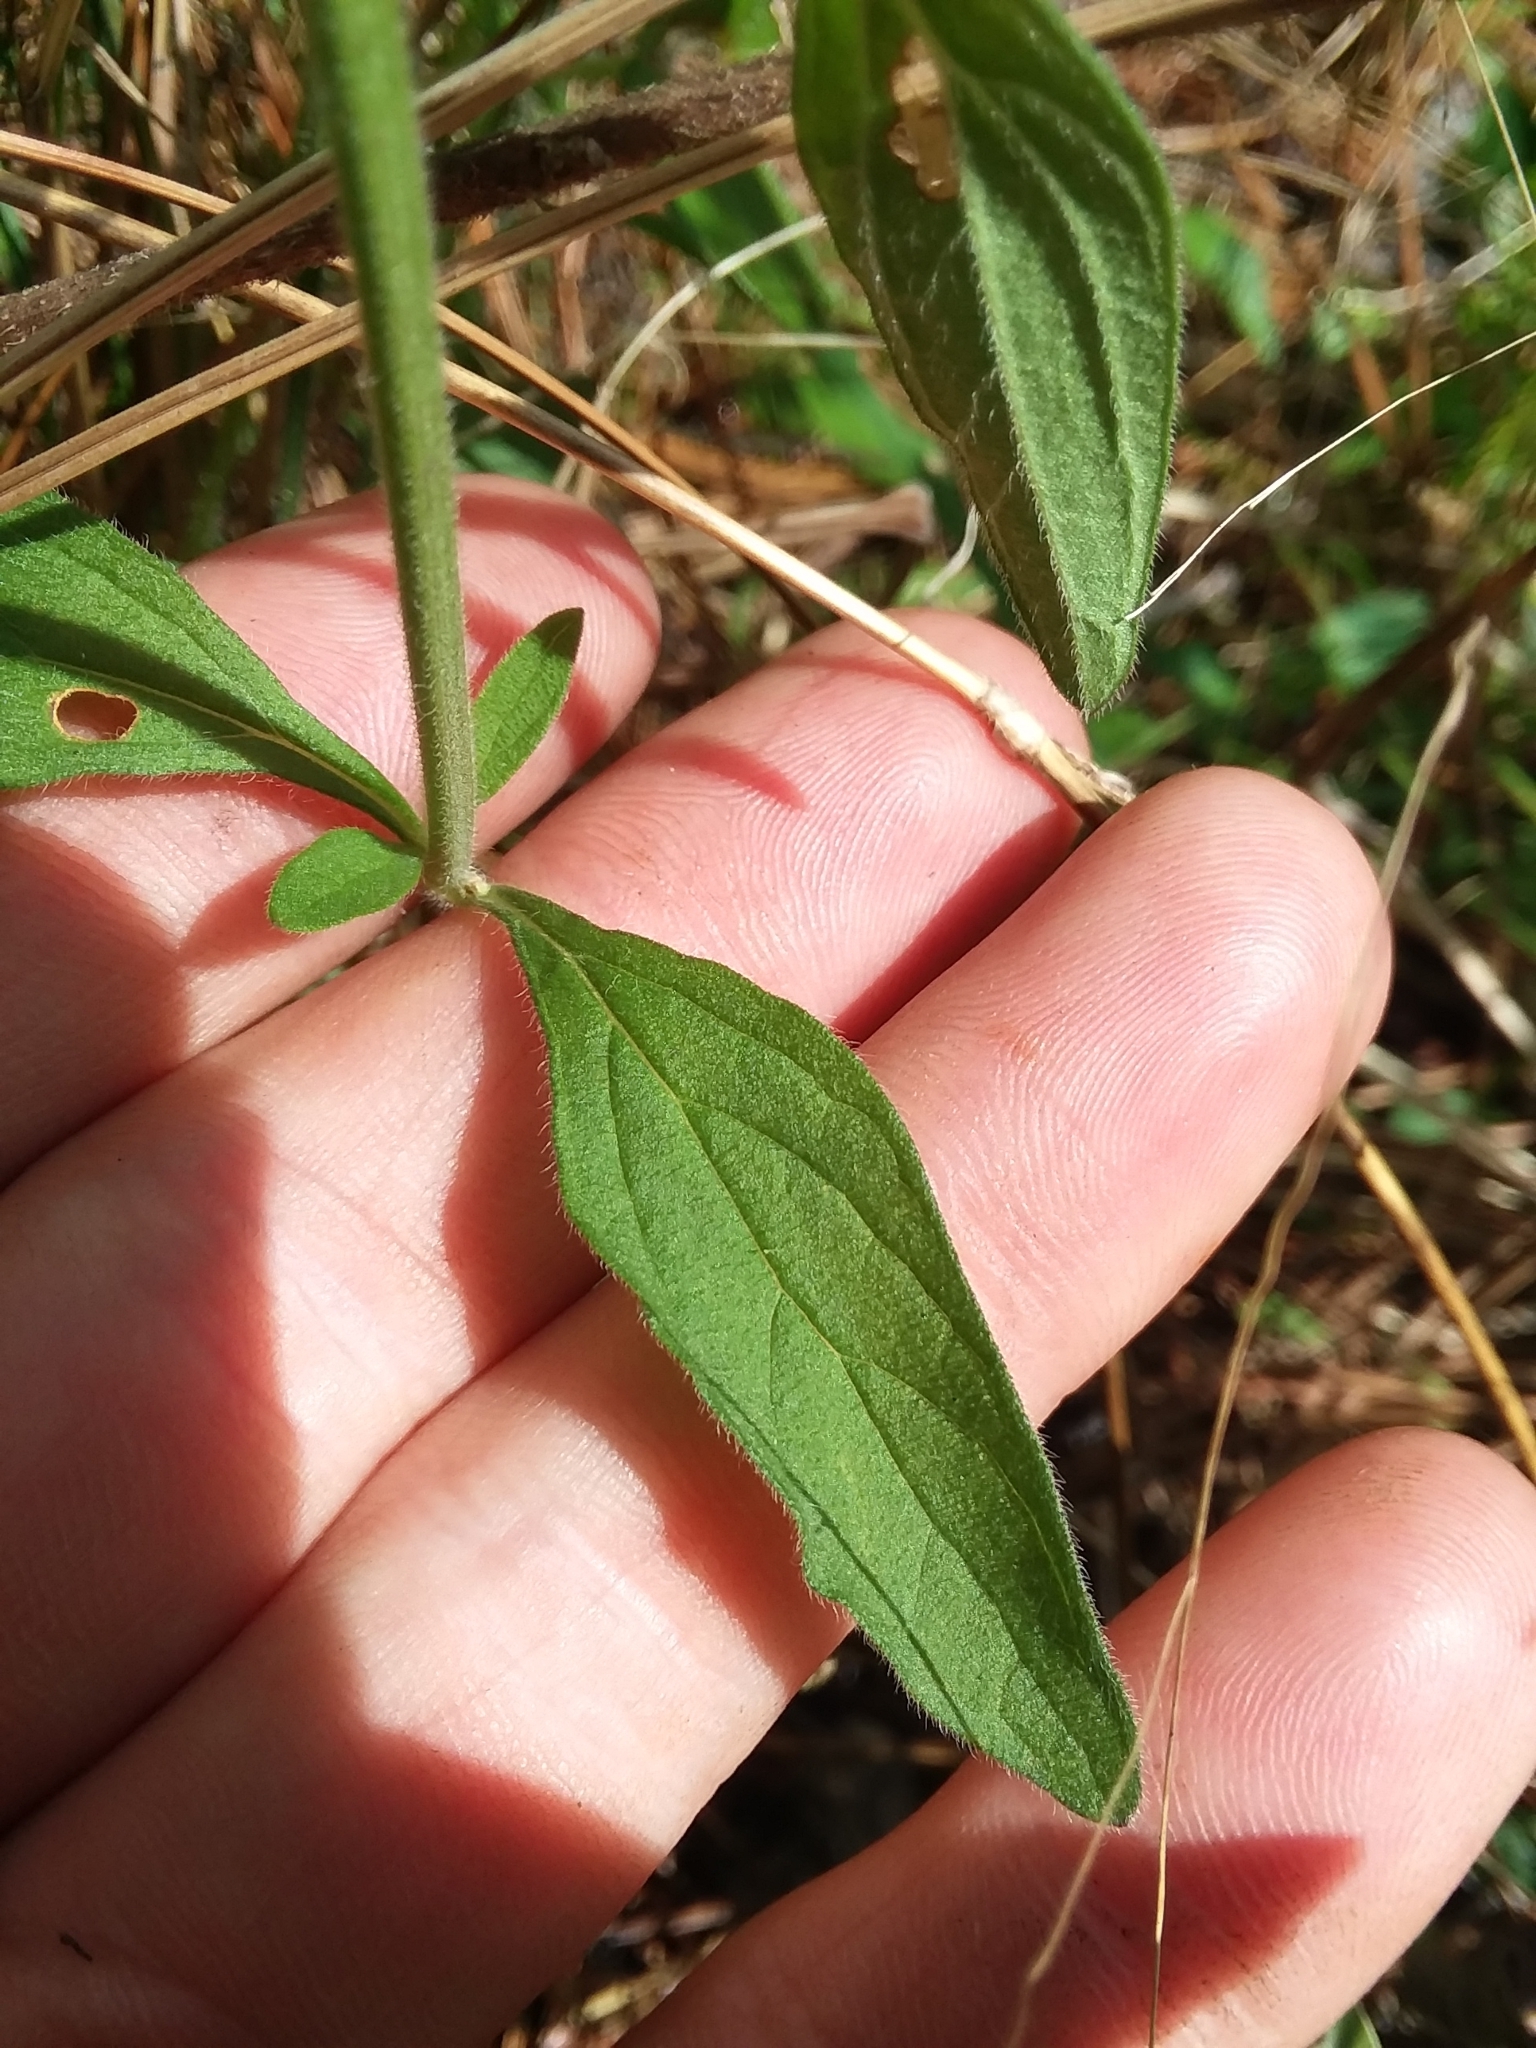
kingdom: Plantae
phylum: Tracheophyta
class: Magnoliopsida
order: Lamiales
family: Lamiaceae
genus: Scutellaria
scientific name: Scutellaria integrifolia
